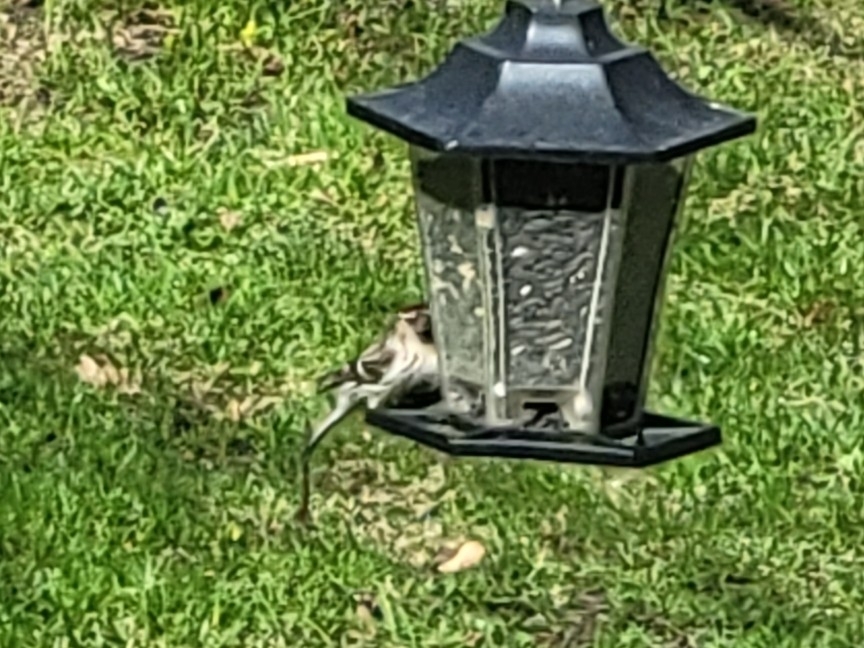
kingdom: Animalia
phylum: Chordata
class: Aves
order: Passeriformes
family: Fringillidae
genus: Acanthis
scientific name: Acanthis flammea
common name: Common redpoll
